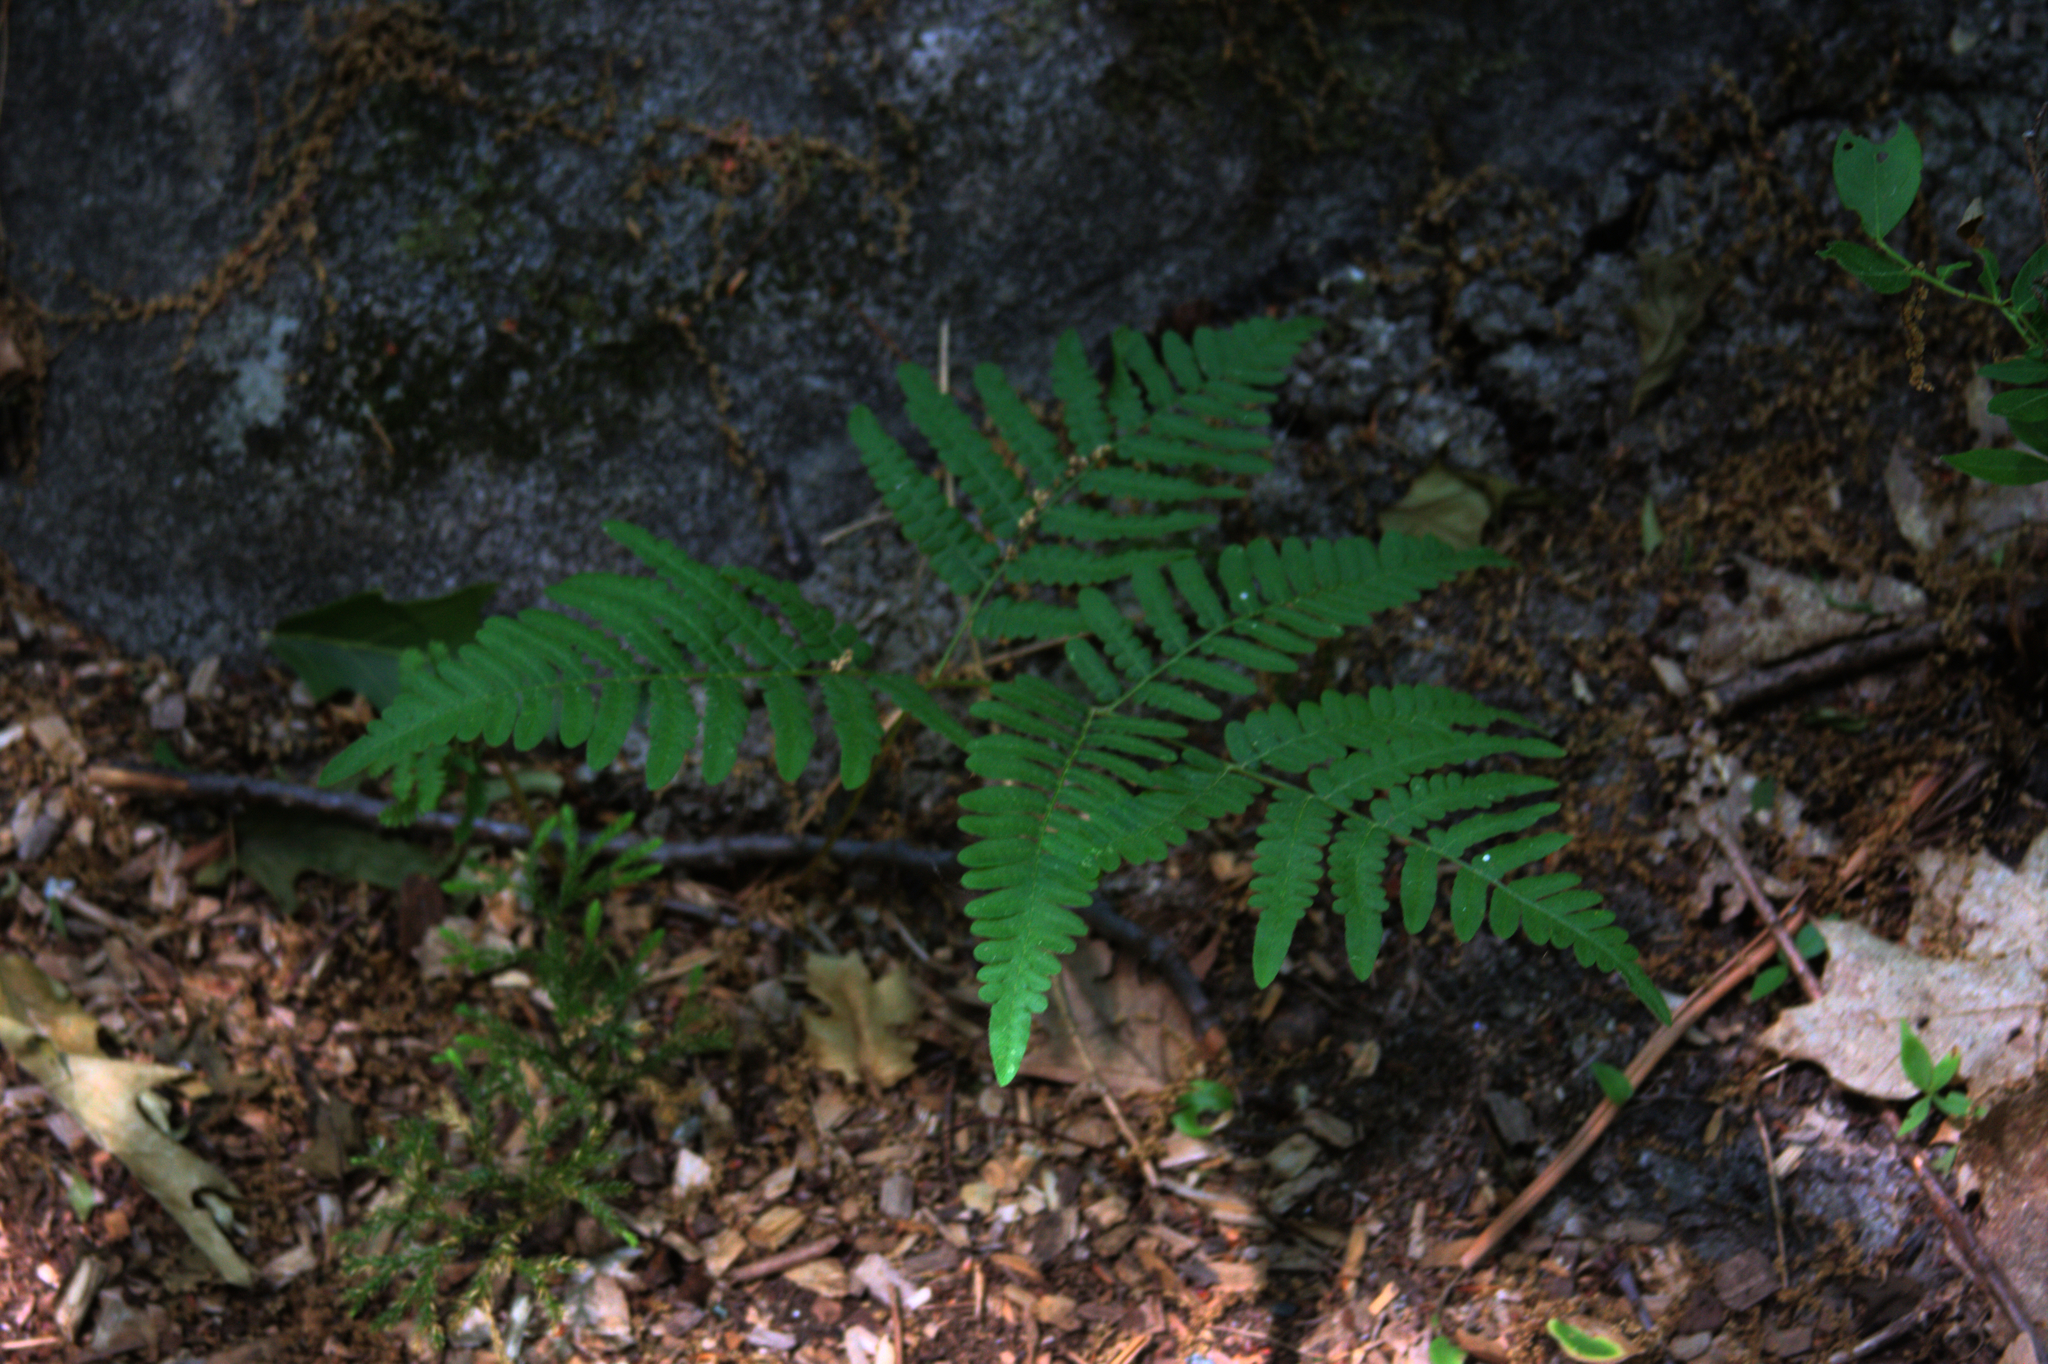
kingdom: Plantae
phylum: Tracheophyta
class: Polypodiopsida
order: Polypodiales
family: Dennstaedtiaceae
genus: Pteridium
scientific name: Pteridium aquilinum
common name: Bracken
